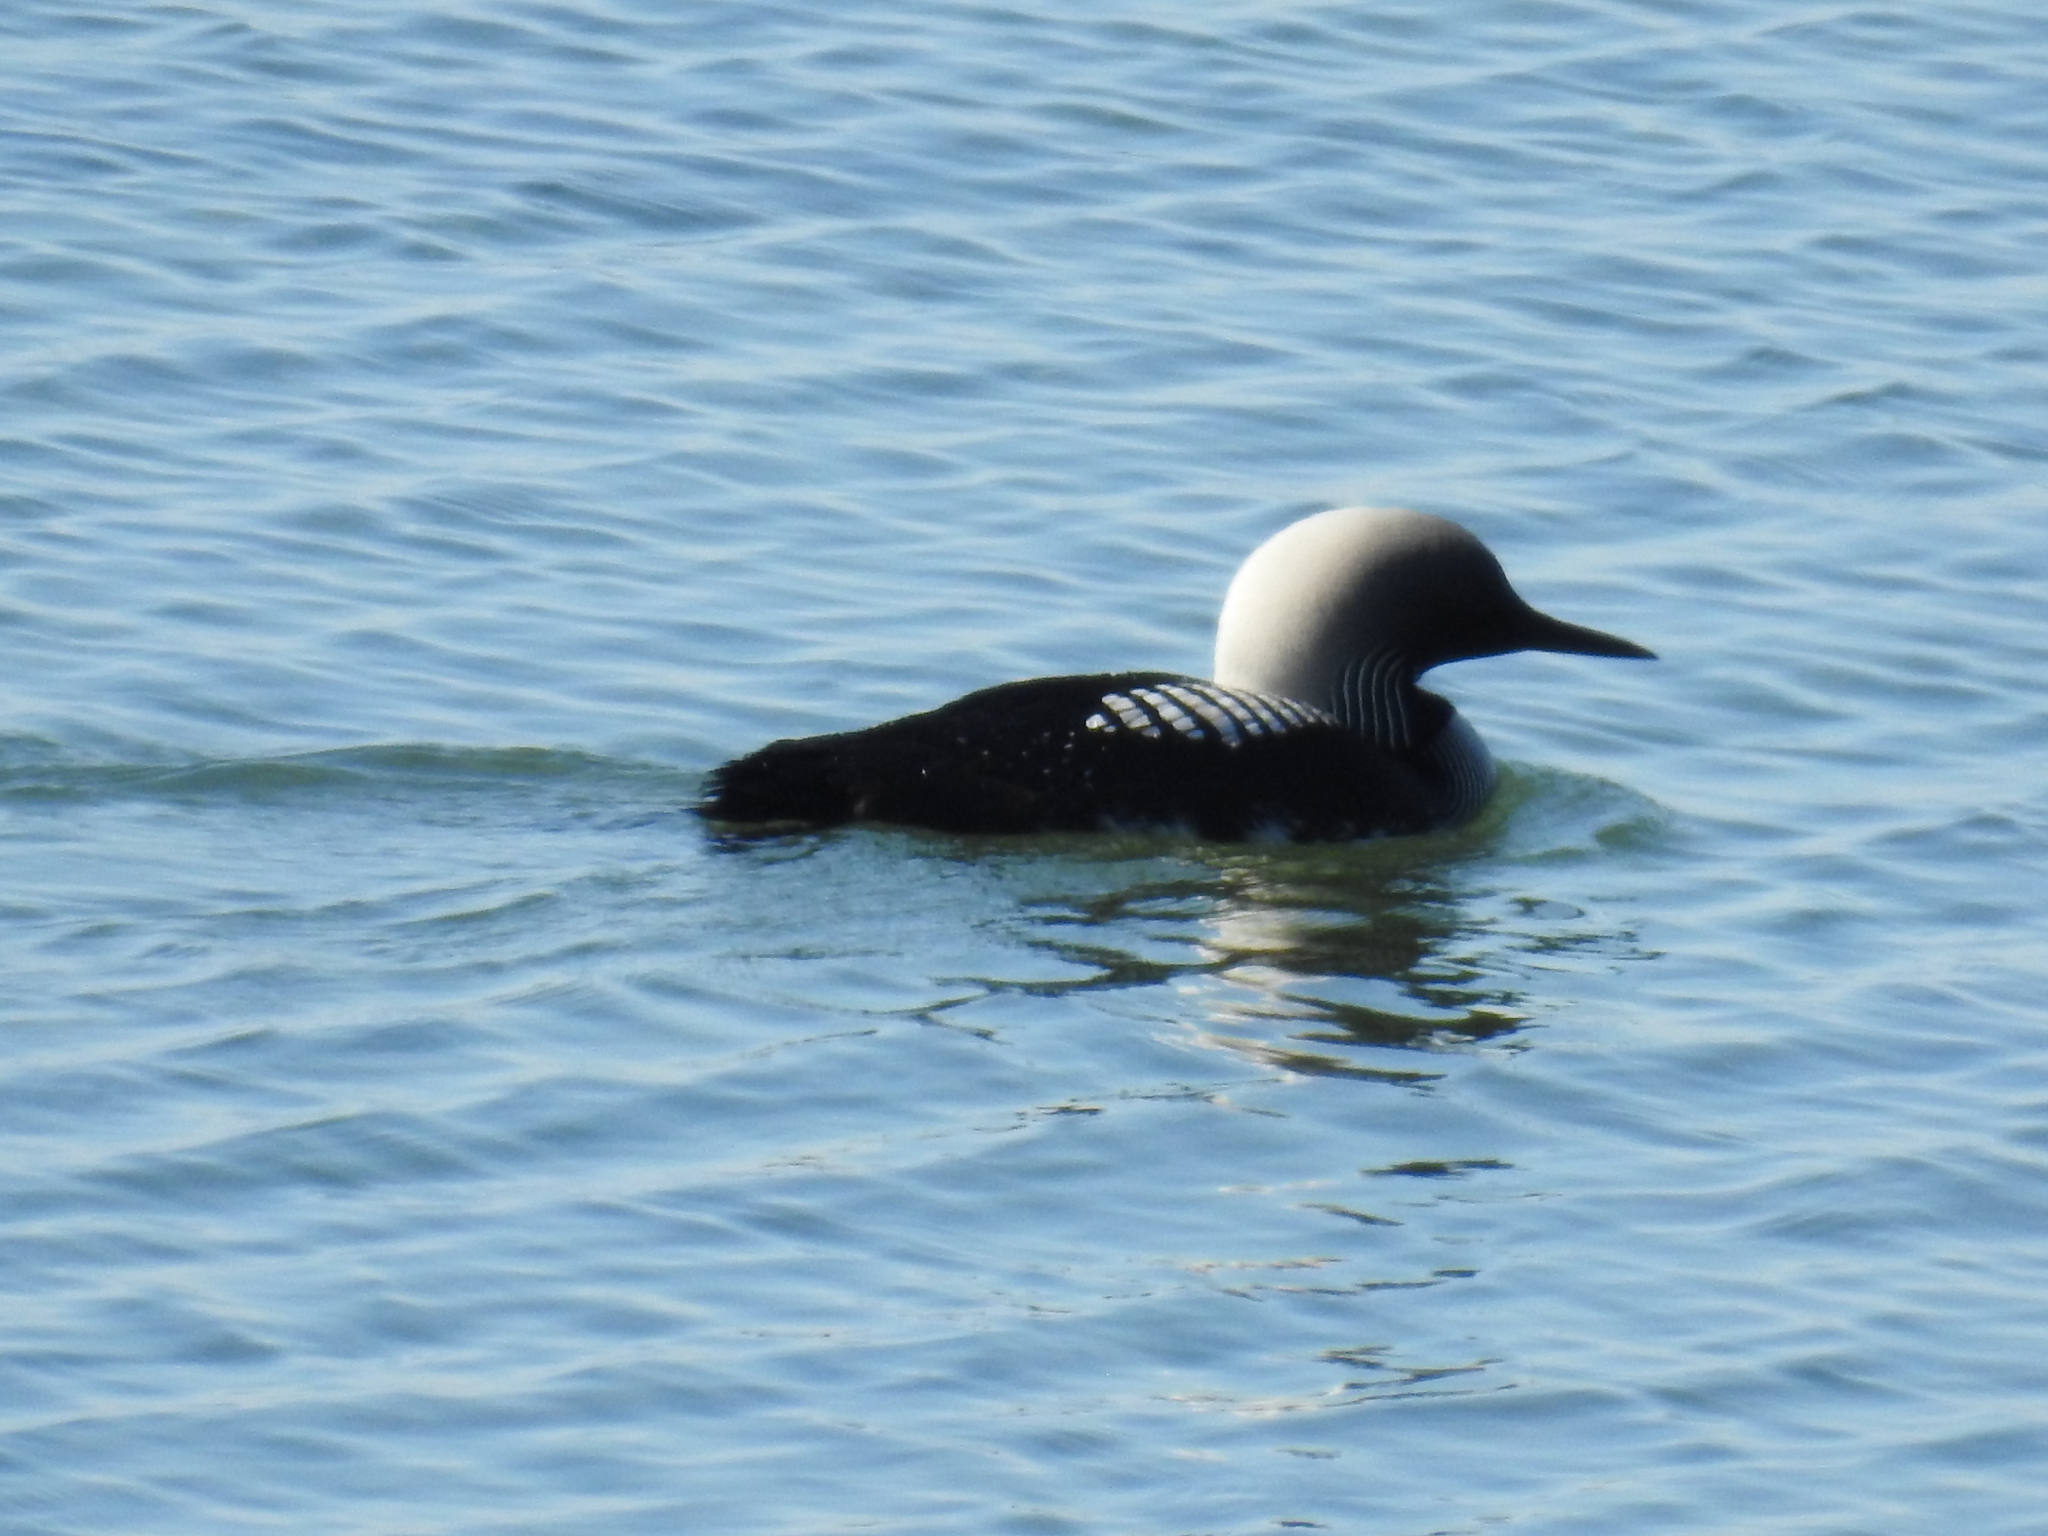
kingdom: Animalia
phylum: Chordata
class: Aves
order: Gaviiformes
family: Gaviidae
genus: Gavia
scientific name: Gavia pacifica
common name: Pacific loon
